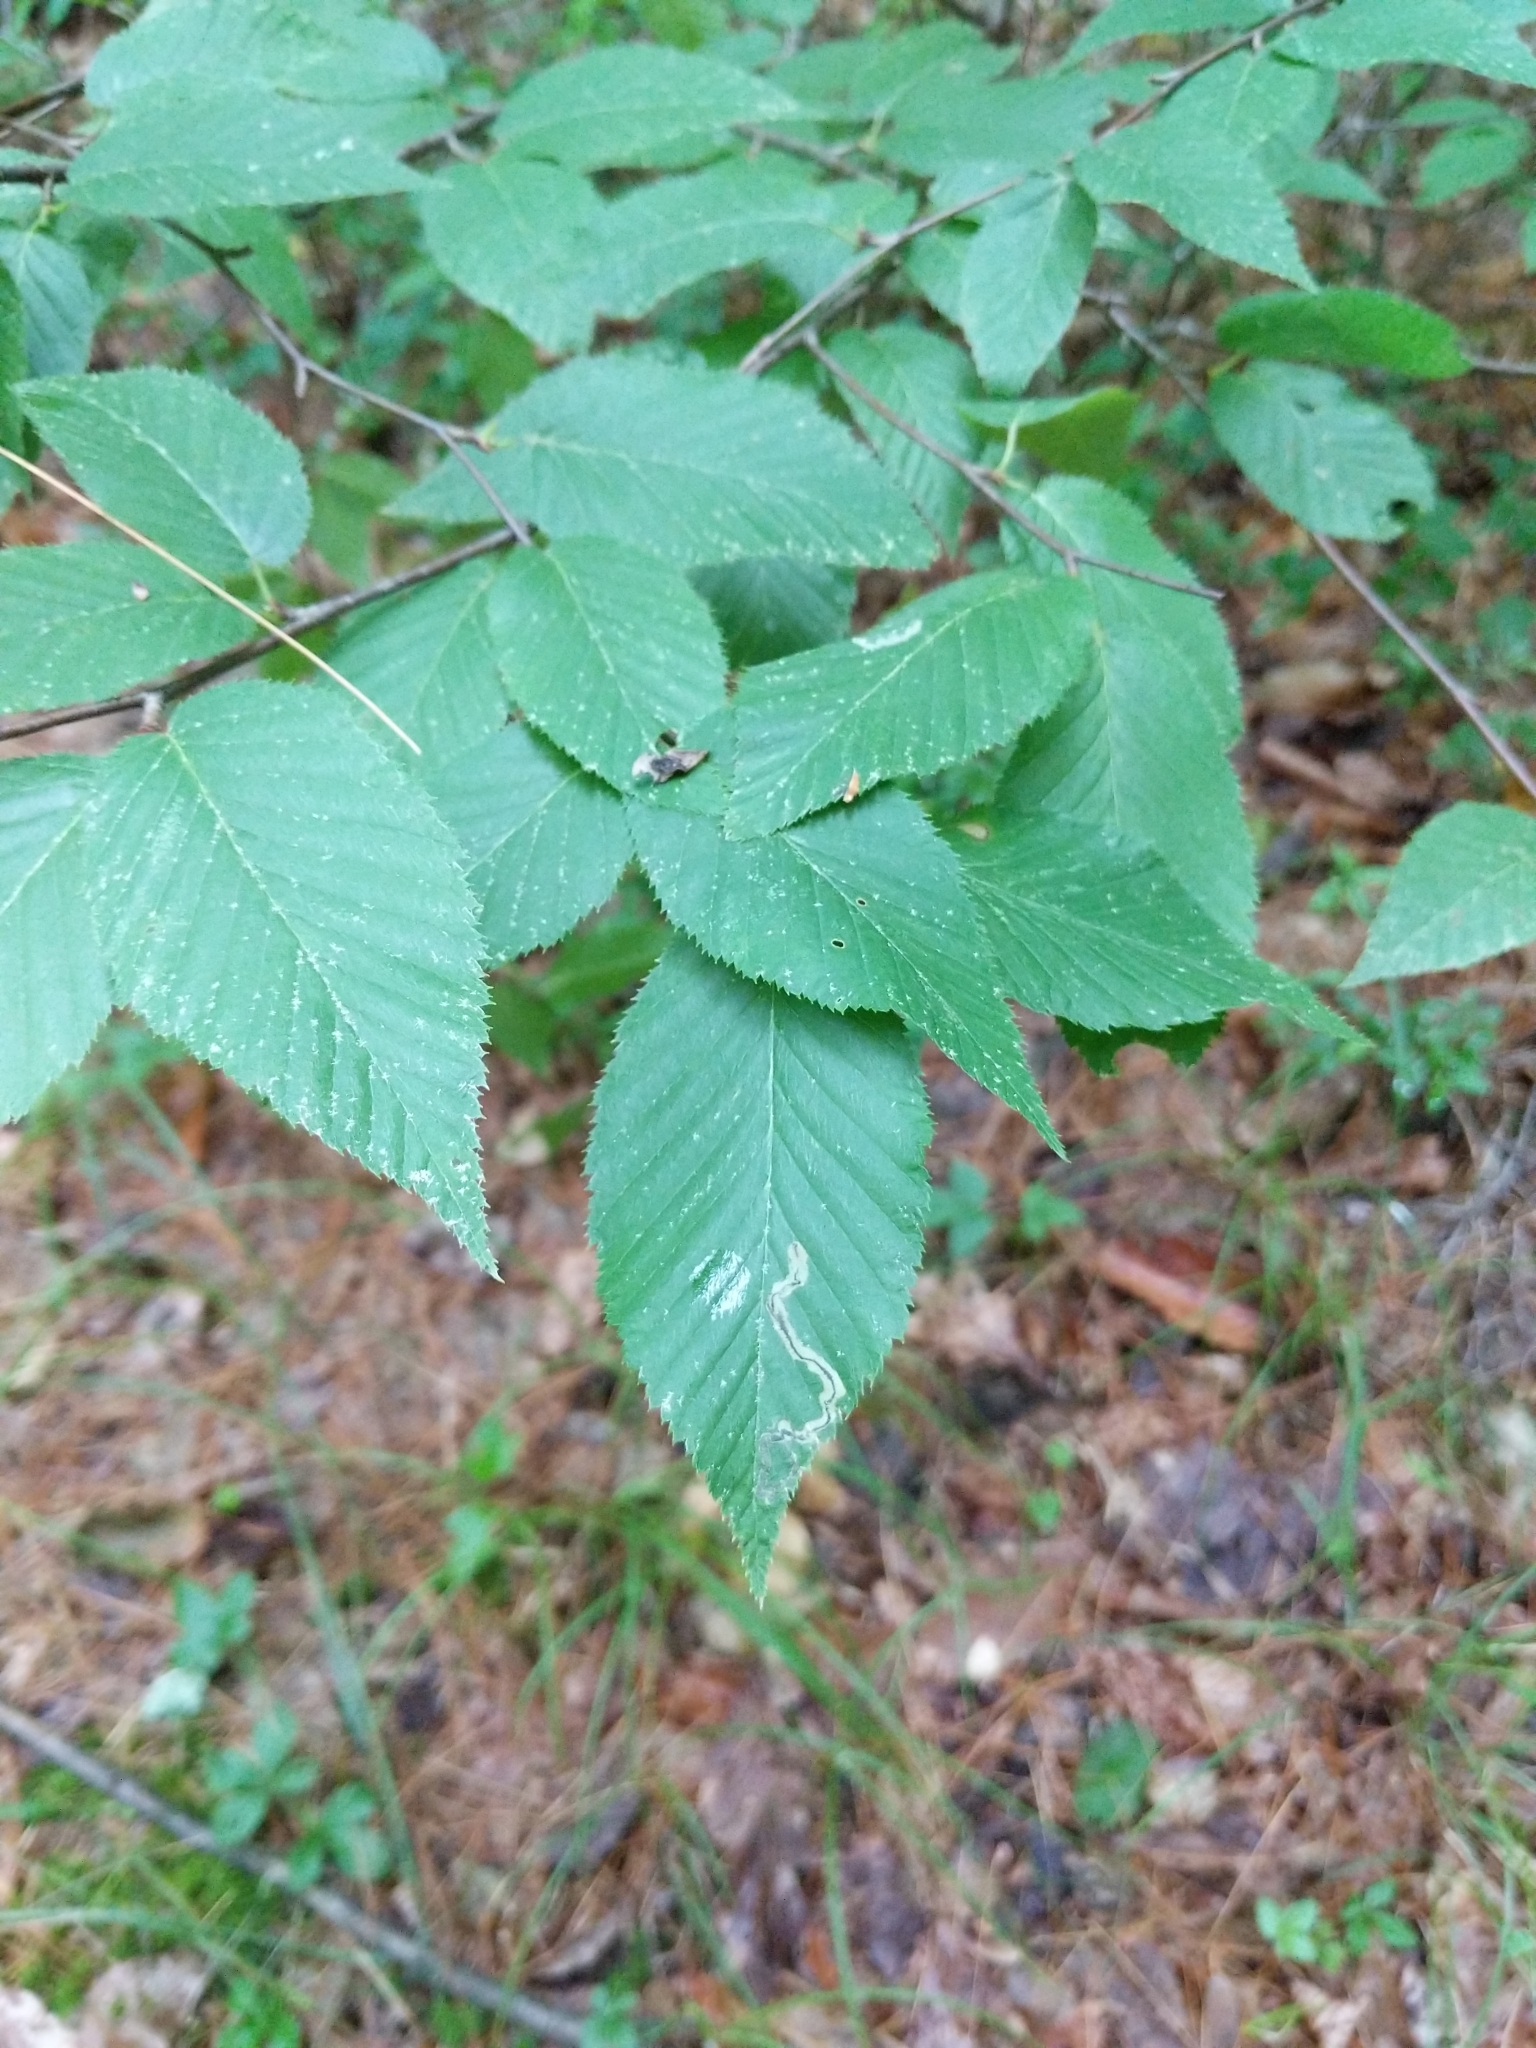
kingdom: Plantae
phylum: Tracheophyta
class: Magnoliopsida
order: Fagales
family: Betulaceae
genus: Betula
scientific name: Betula lenta
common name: Black birch
